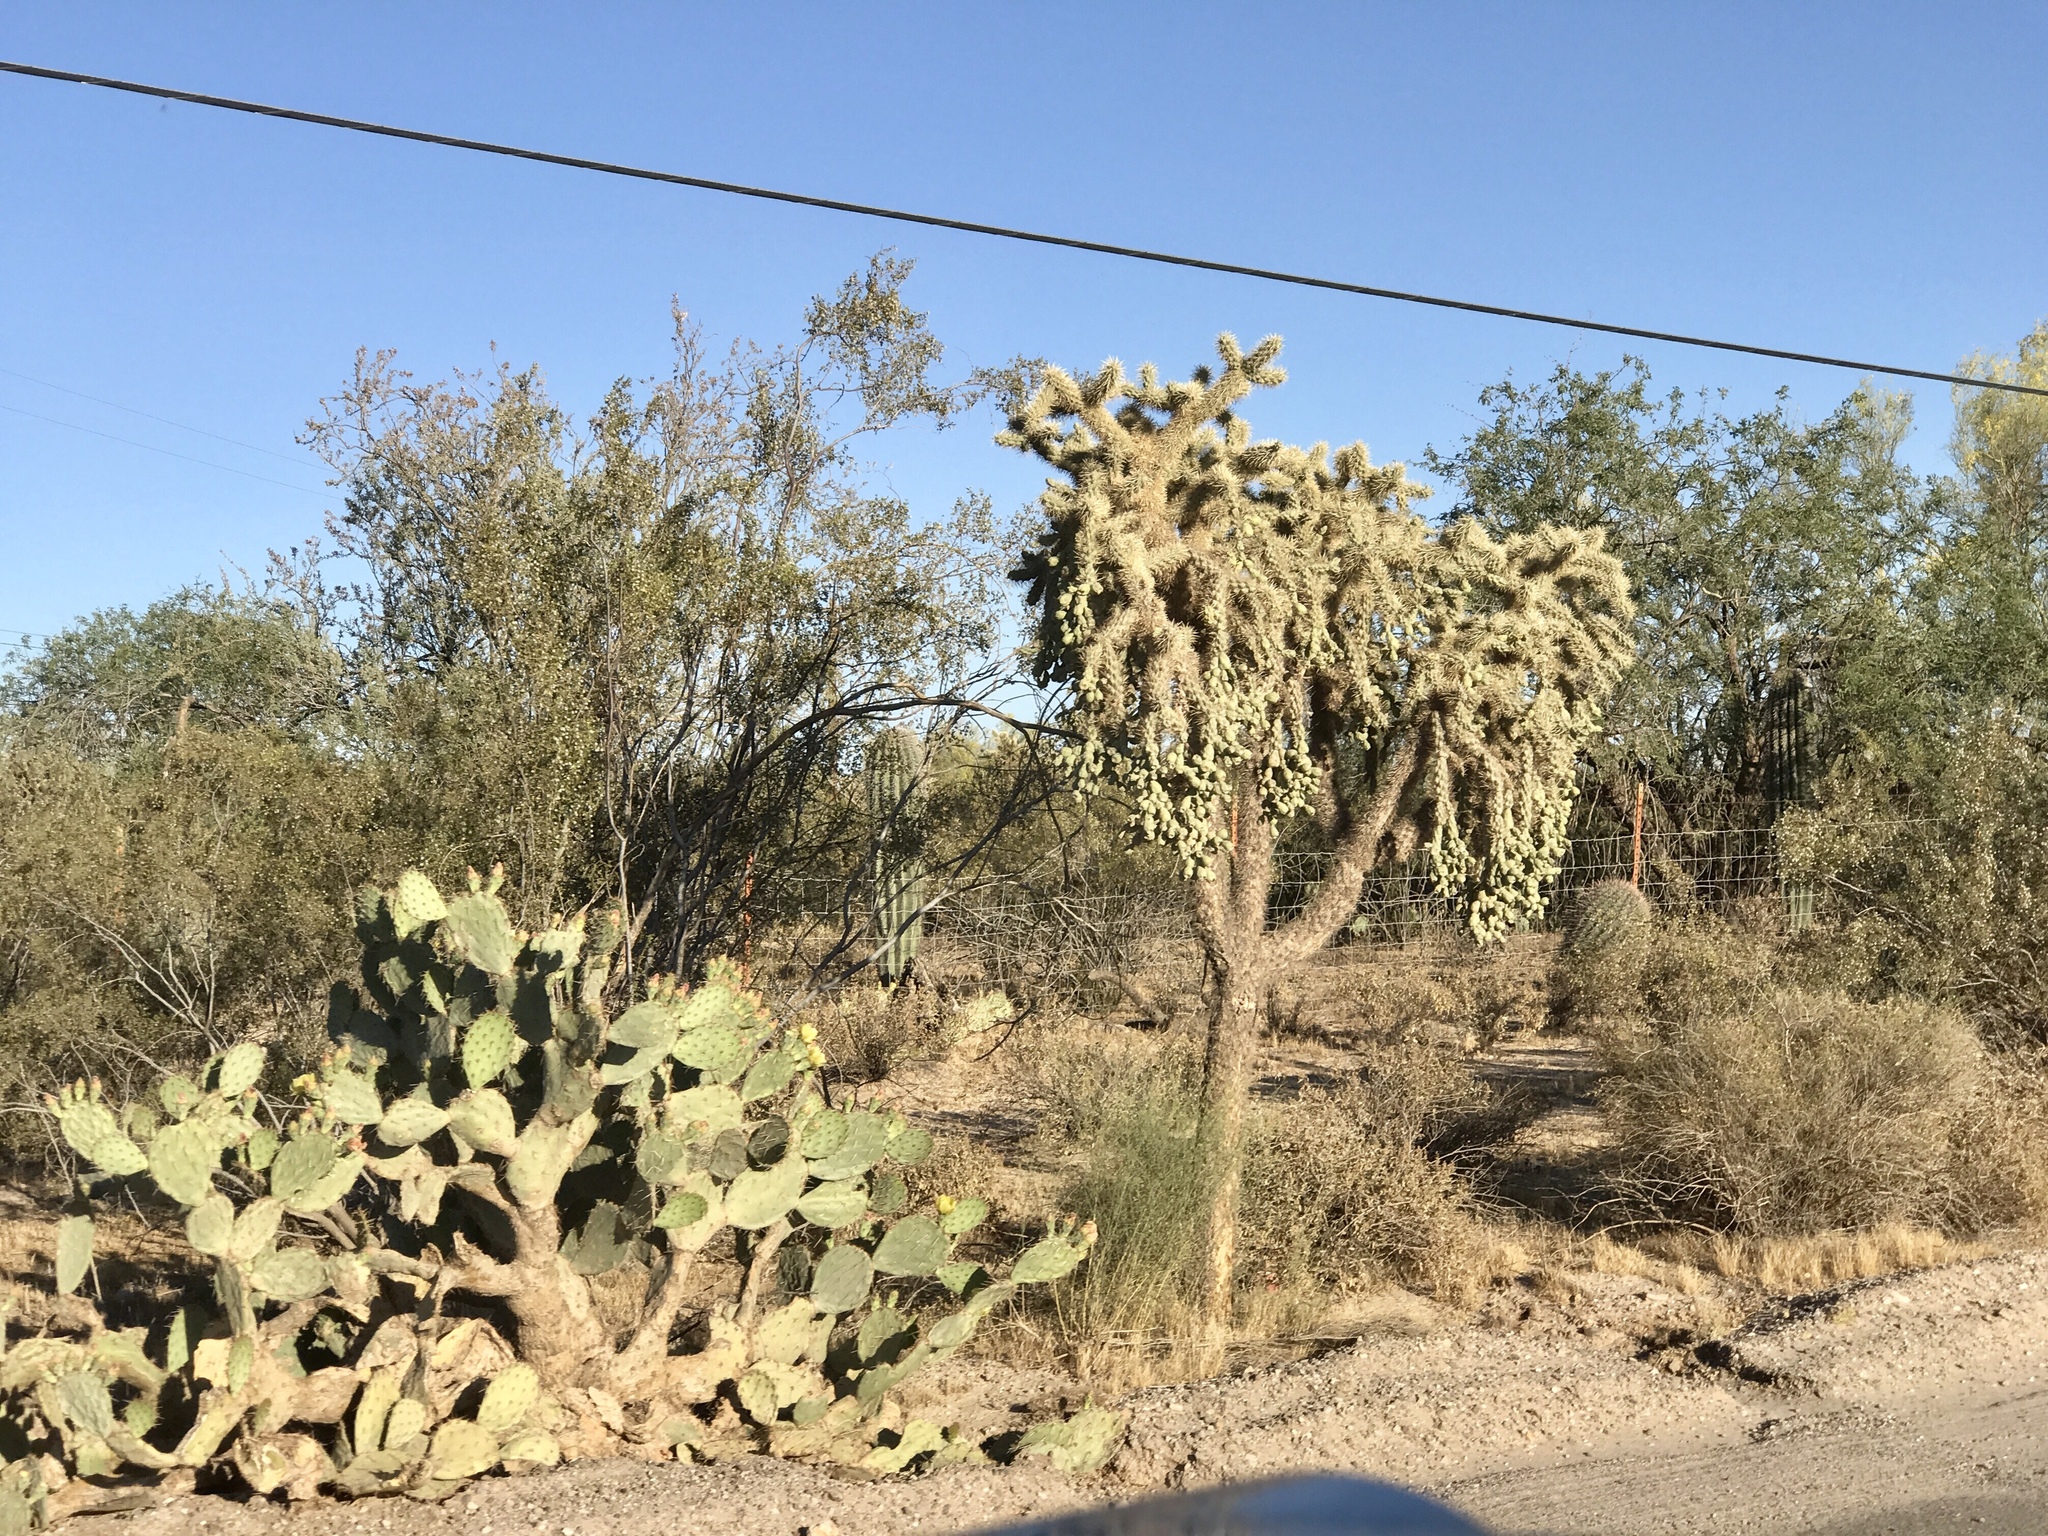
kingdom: Plantae
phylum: Tracheophyta
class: Magnoliopsida
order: Caryophyllales
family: Cactaceae
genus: Opuntia
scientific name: Opuntia engelmannii
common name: Cactus-apple
